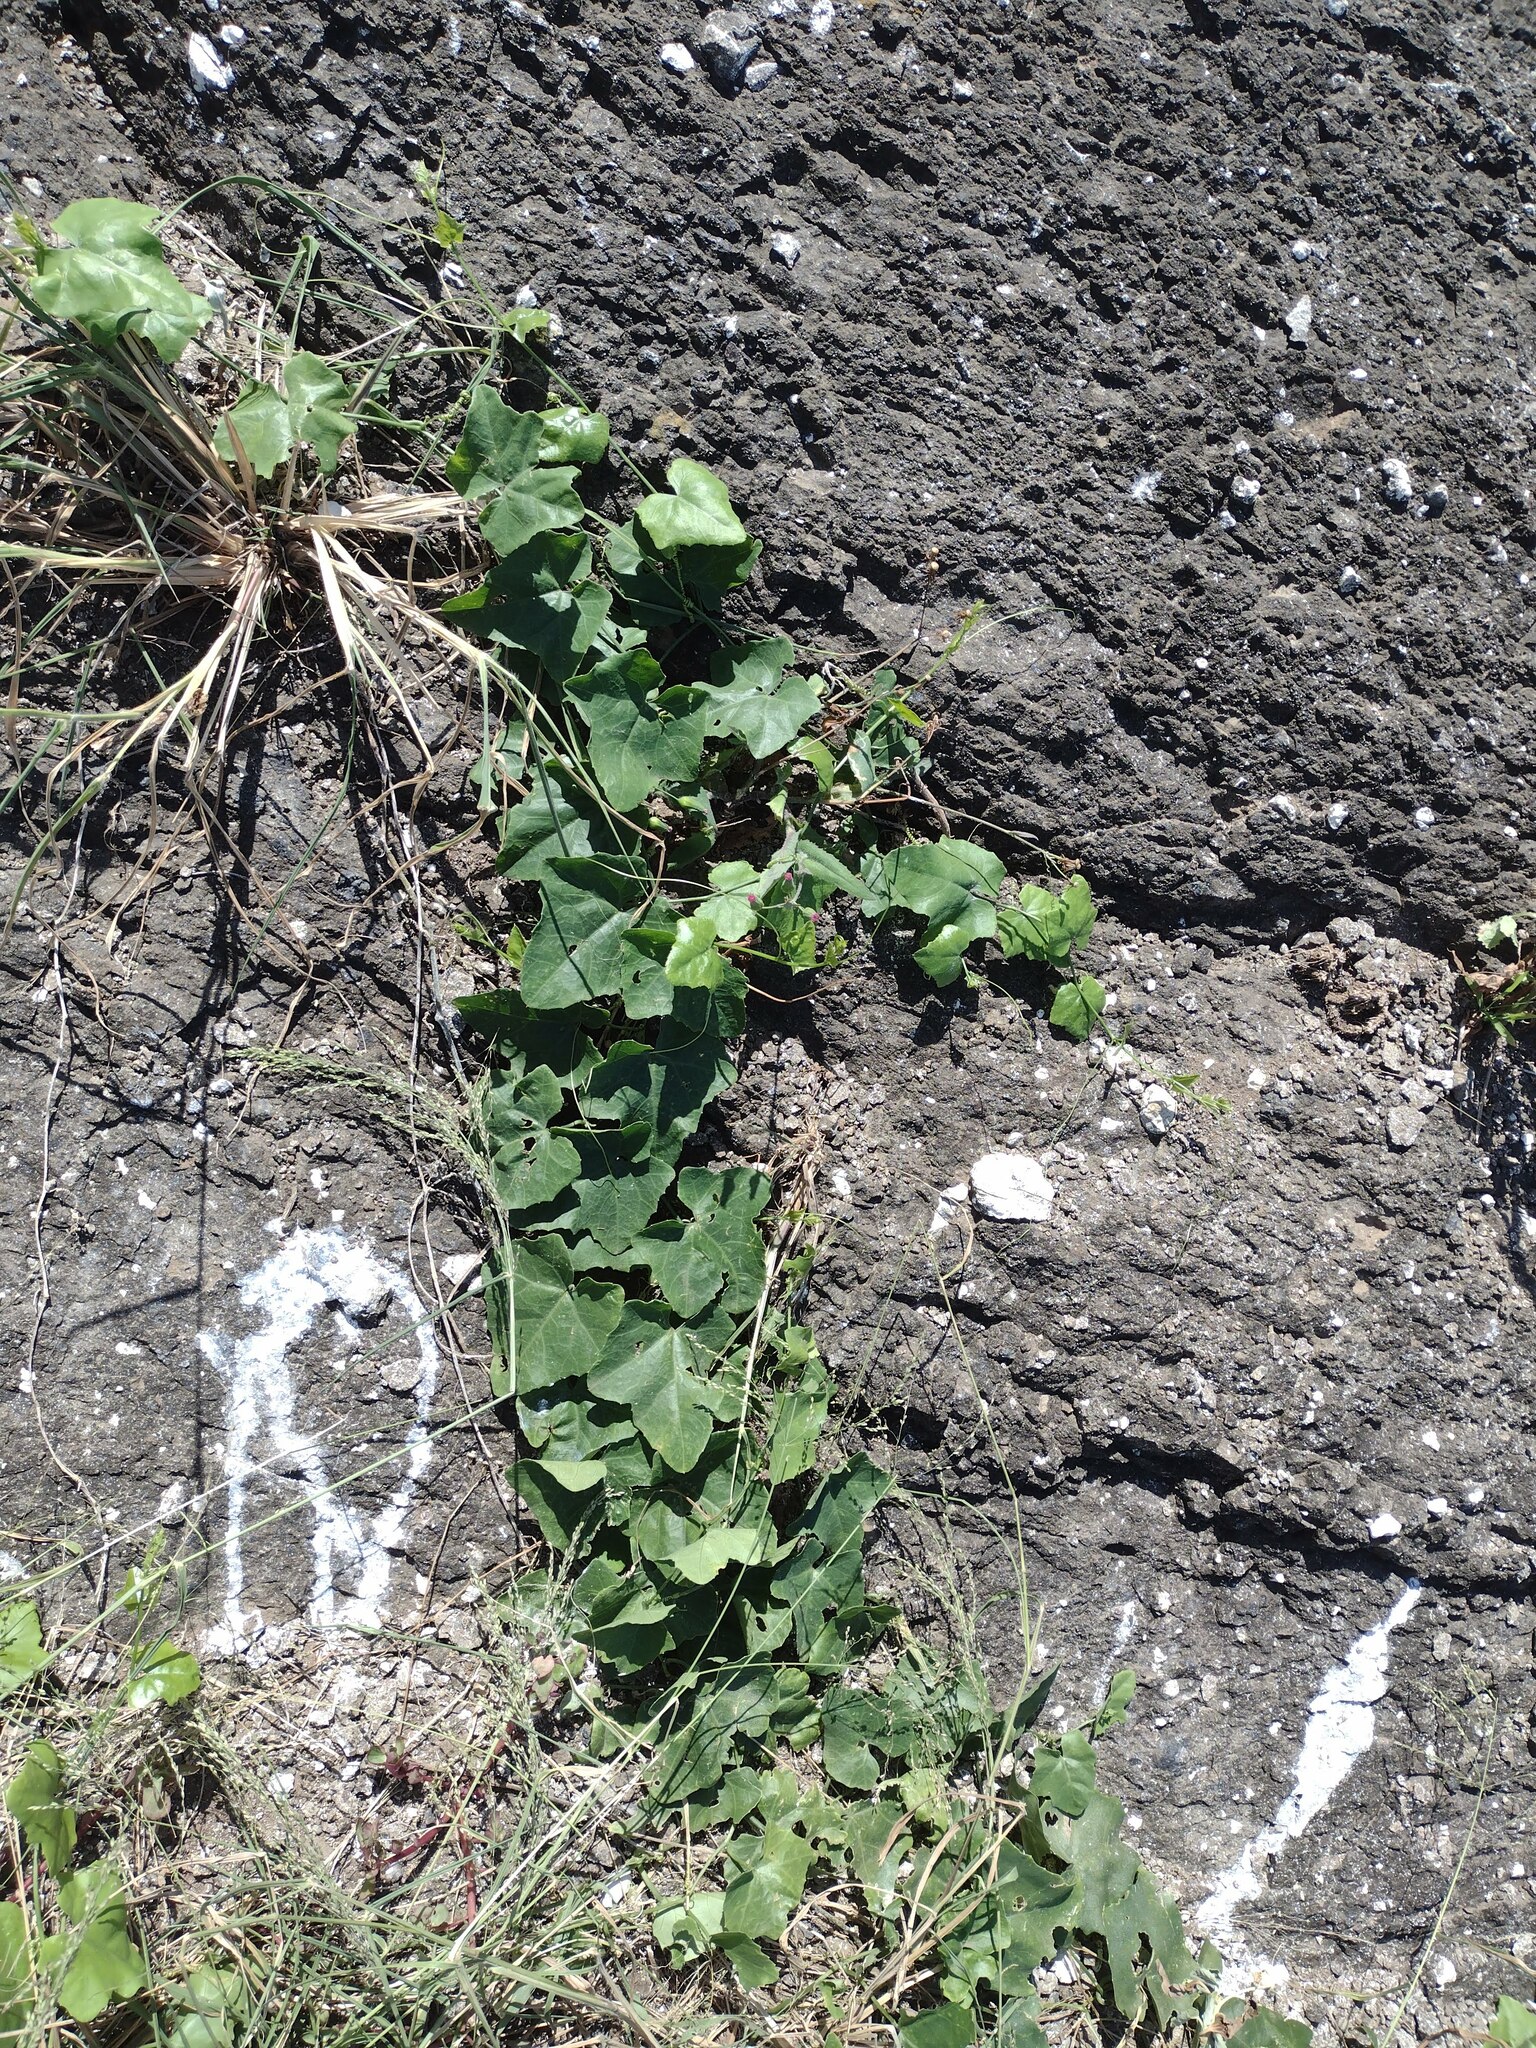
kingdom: Plantae
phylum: Tracheophyta
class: Magnoliopsida
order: Cucurbitales
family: Cucurbitaceae
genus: Coccinia
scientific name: Coccinia grandis
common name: Ivy gourd
